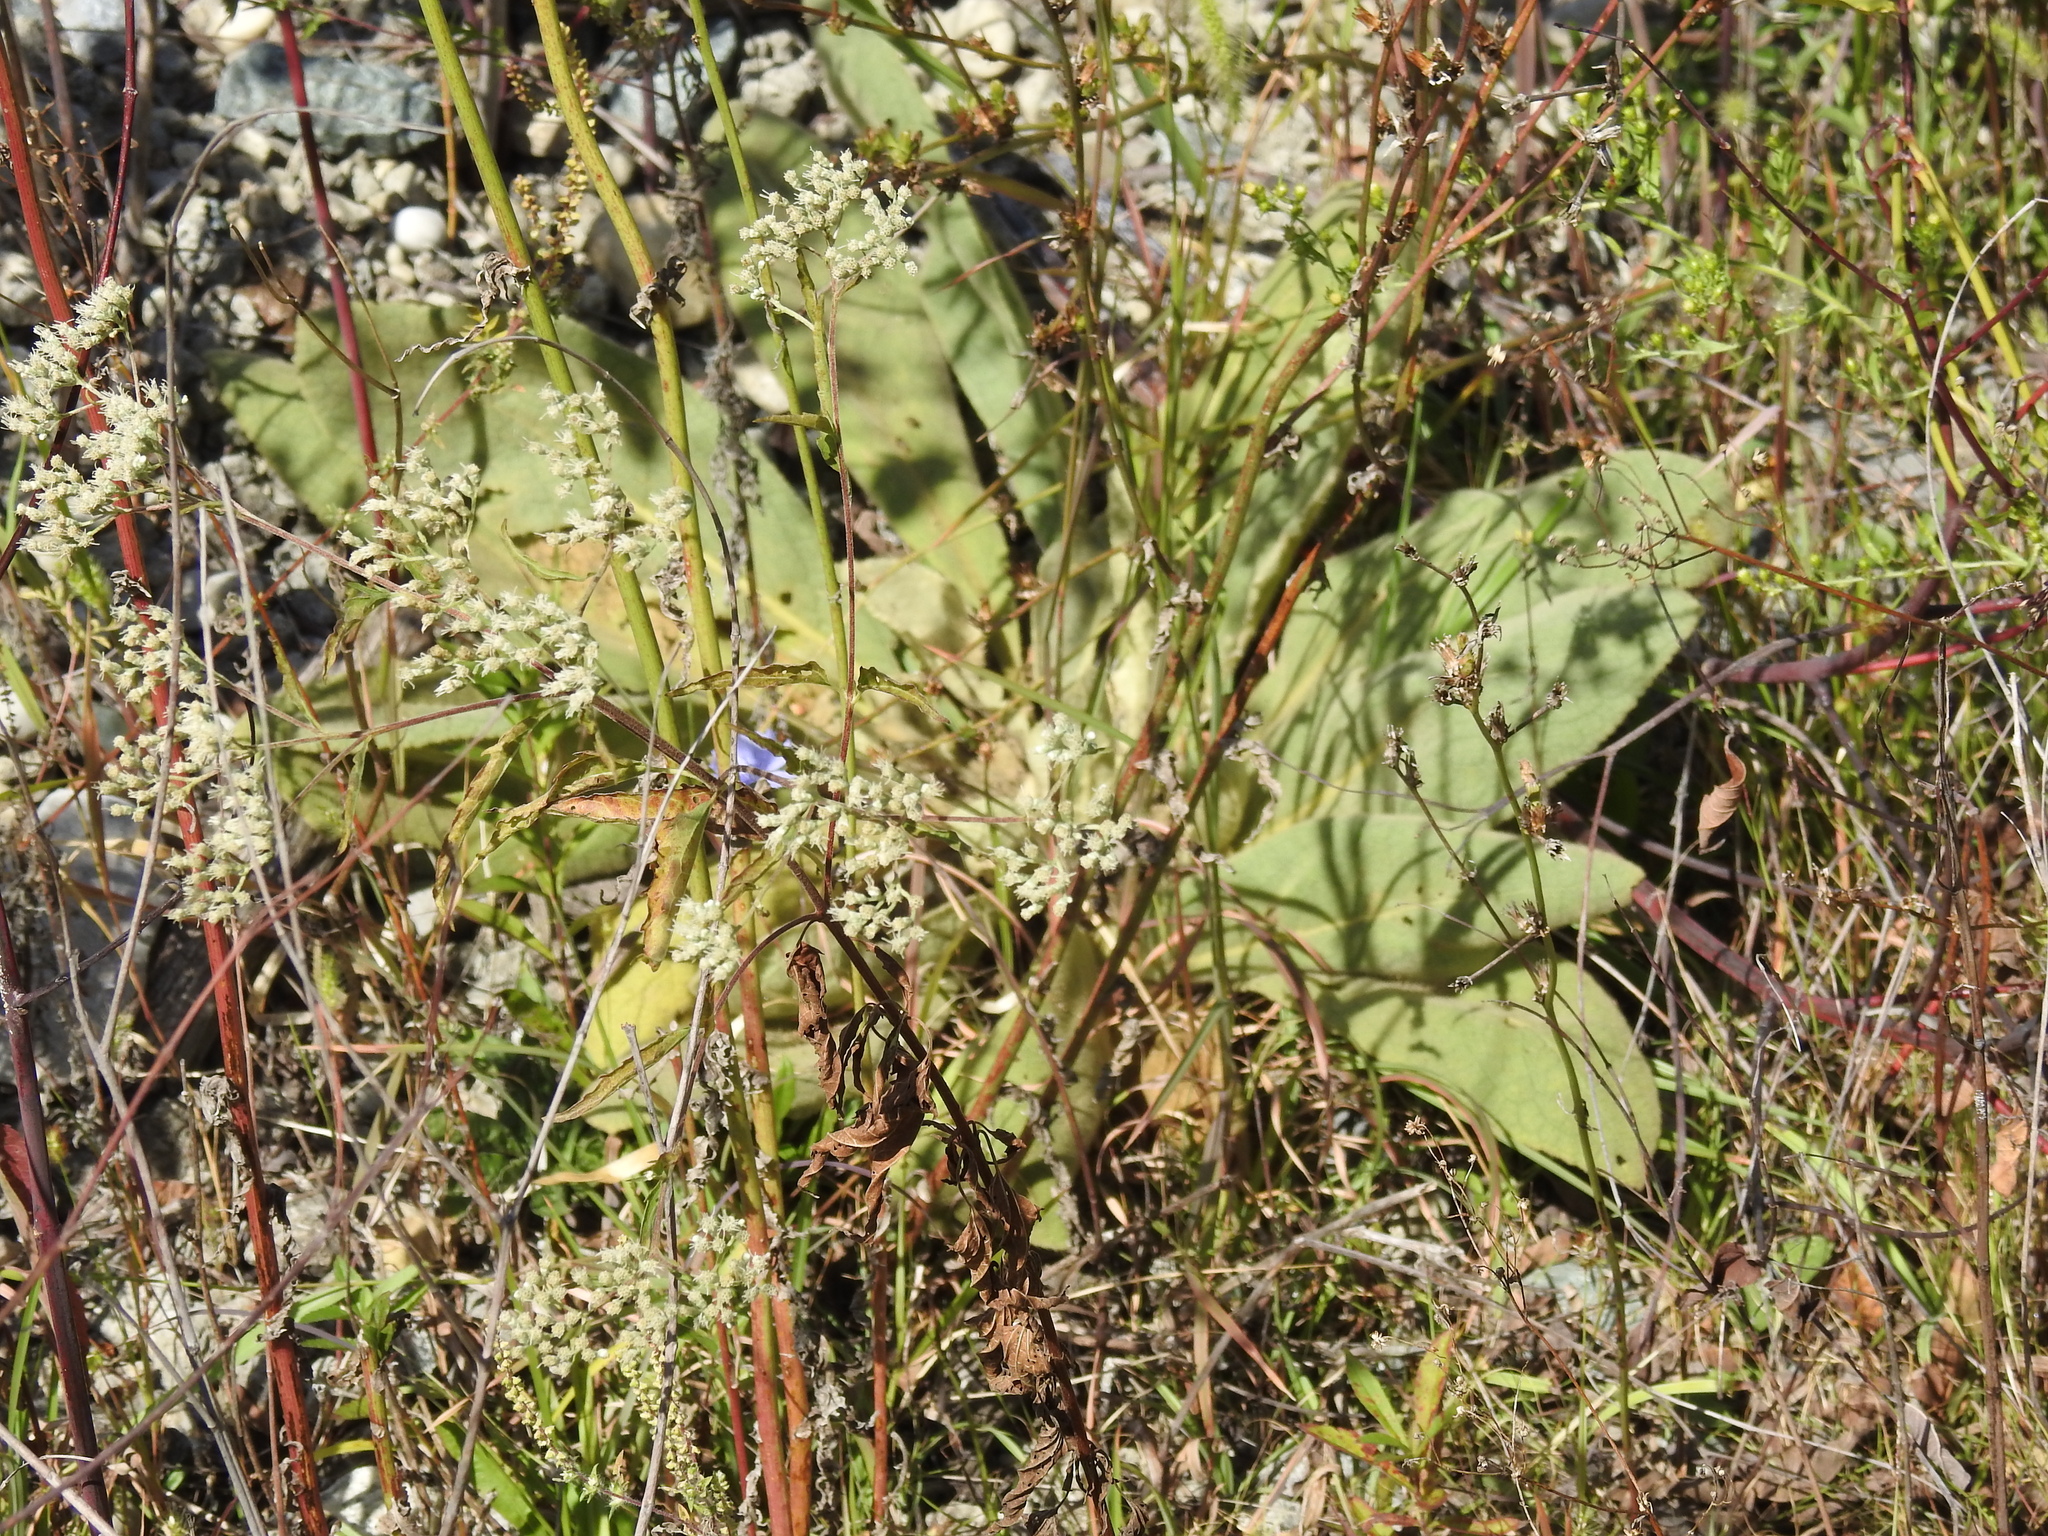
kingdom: Plantae
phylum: Tracheophyta
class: Magnoliopsida
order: Lamiales
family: Scrophulariaceae
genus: Verbascum
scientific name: Verbascum thapsus
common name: Common mullein
